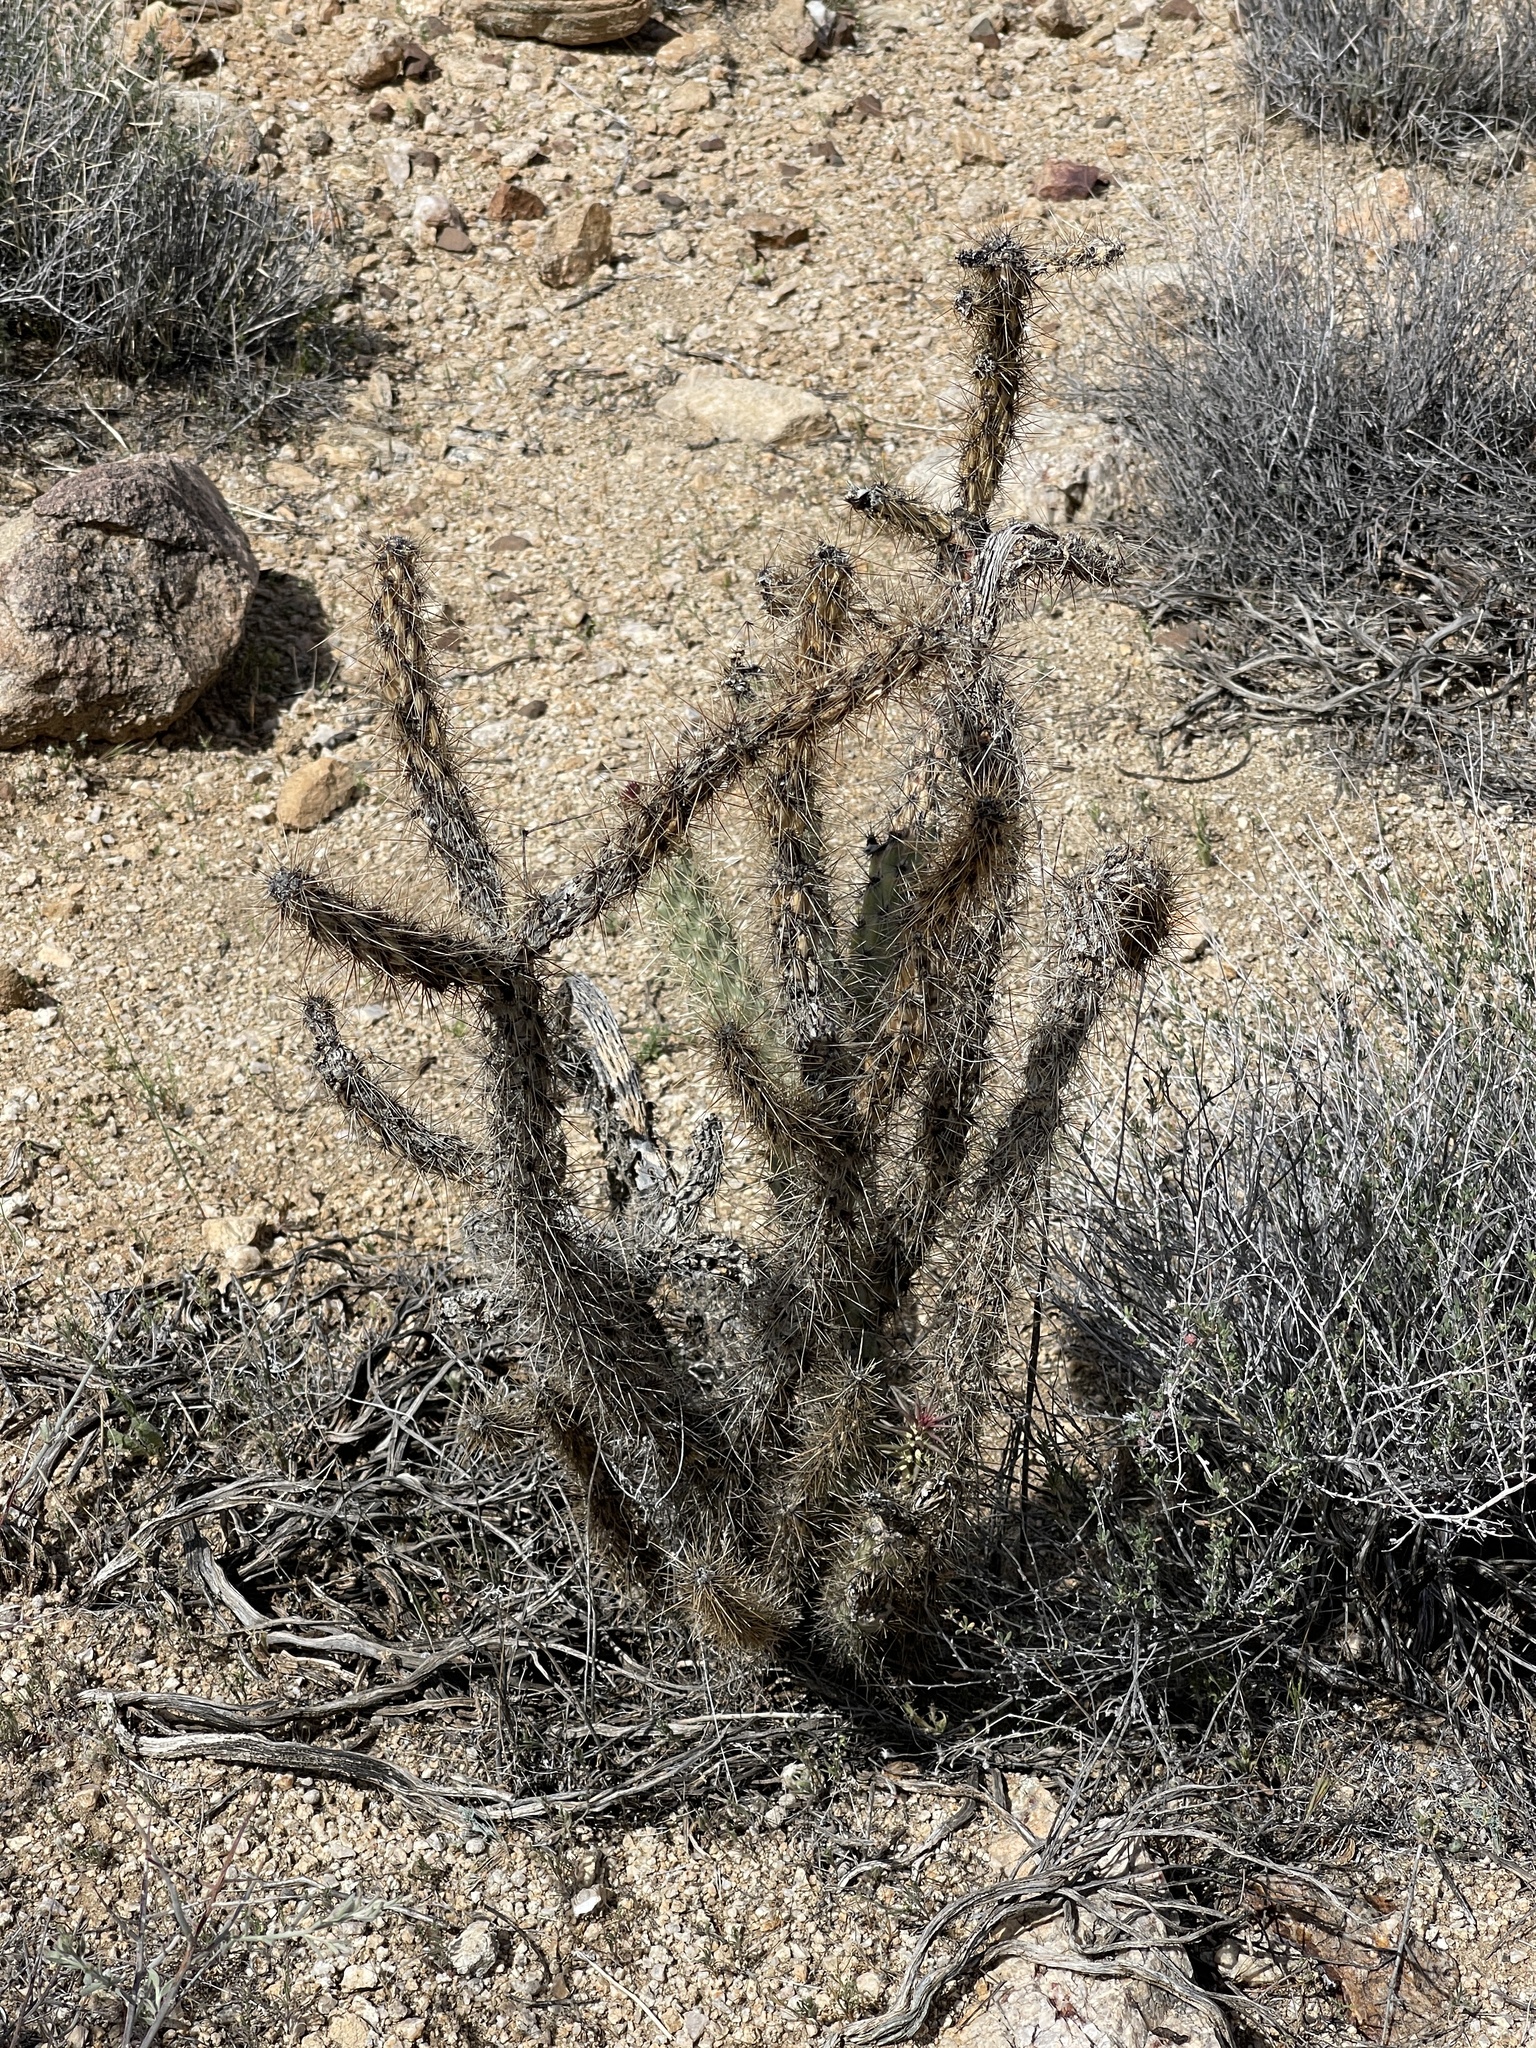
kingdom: Plantae
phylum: Tracheophyta
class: Magnoliopsida
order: Caryophyllales
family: Cactaceae
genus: Cylindropuntia
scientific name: Cylindropuntia acanthocarpa
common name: Buckhorn cholla
